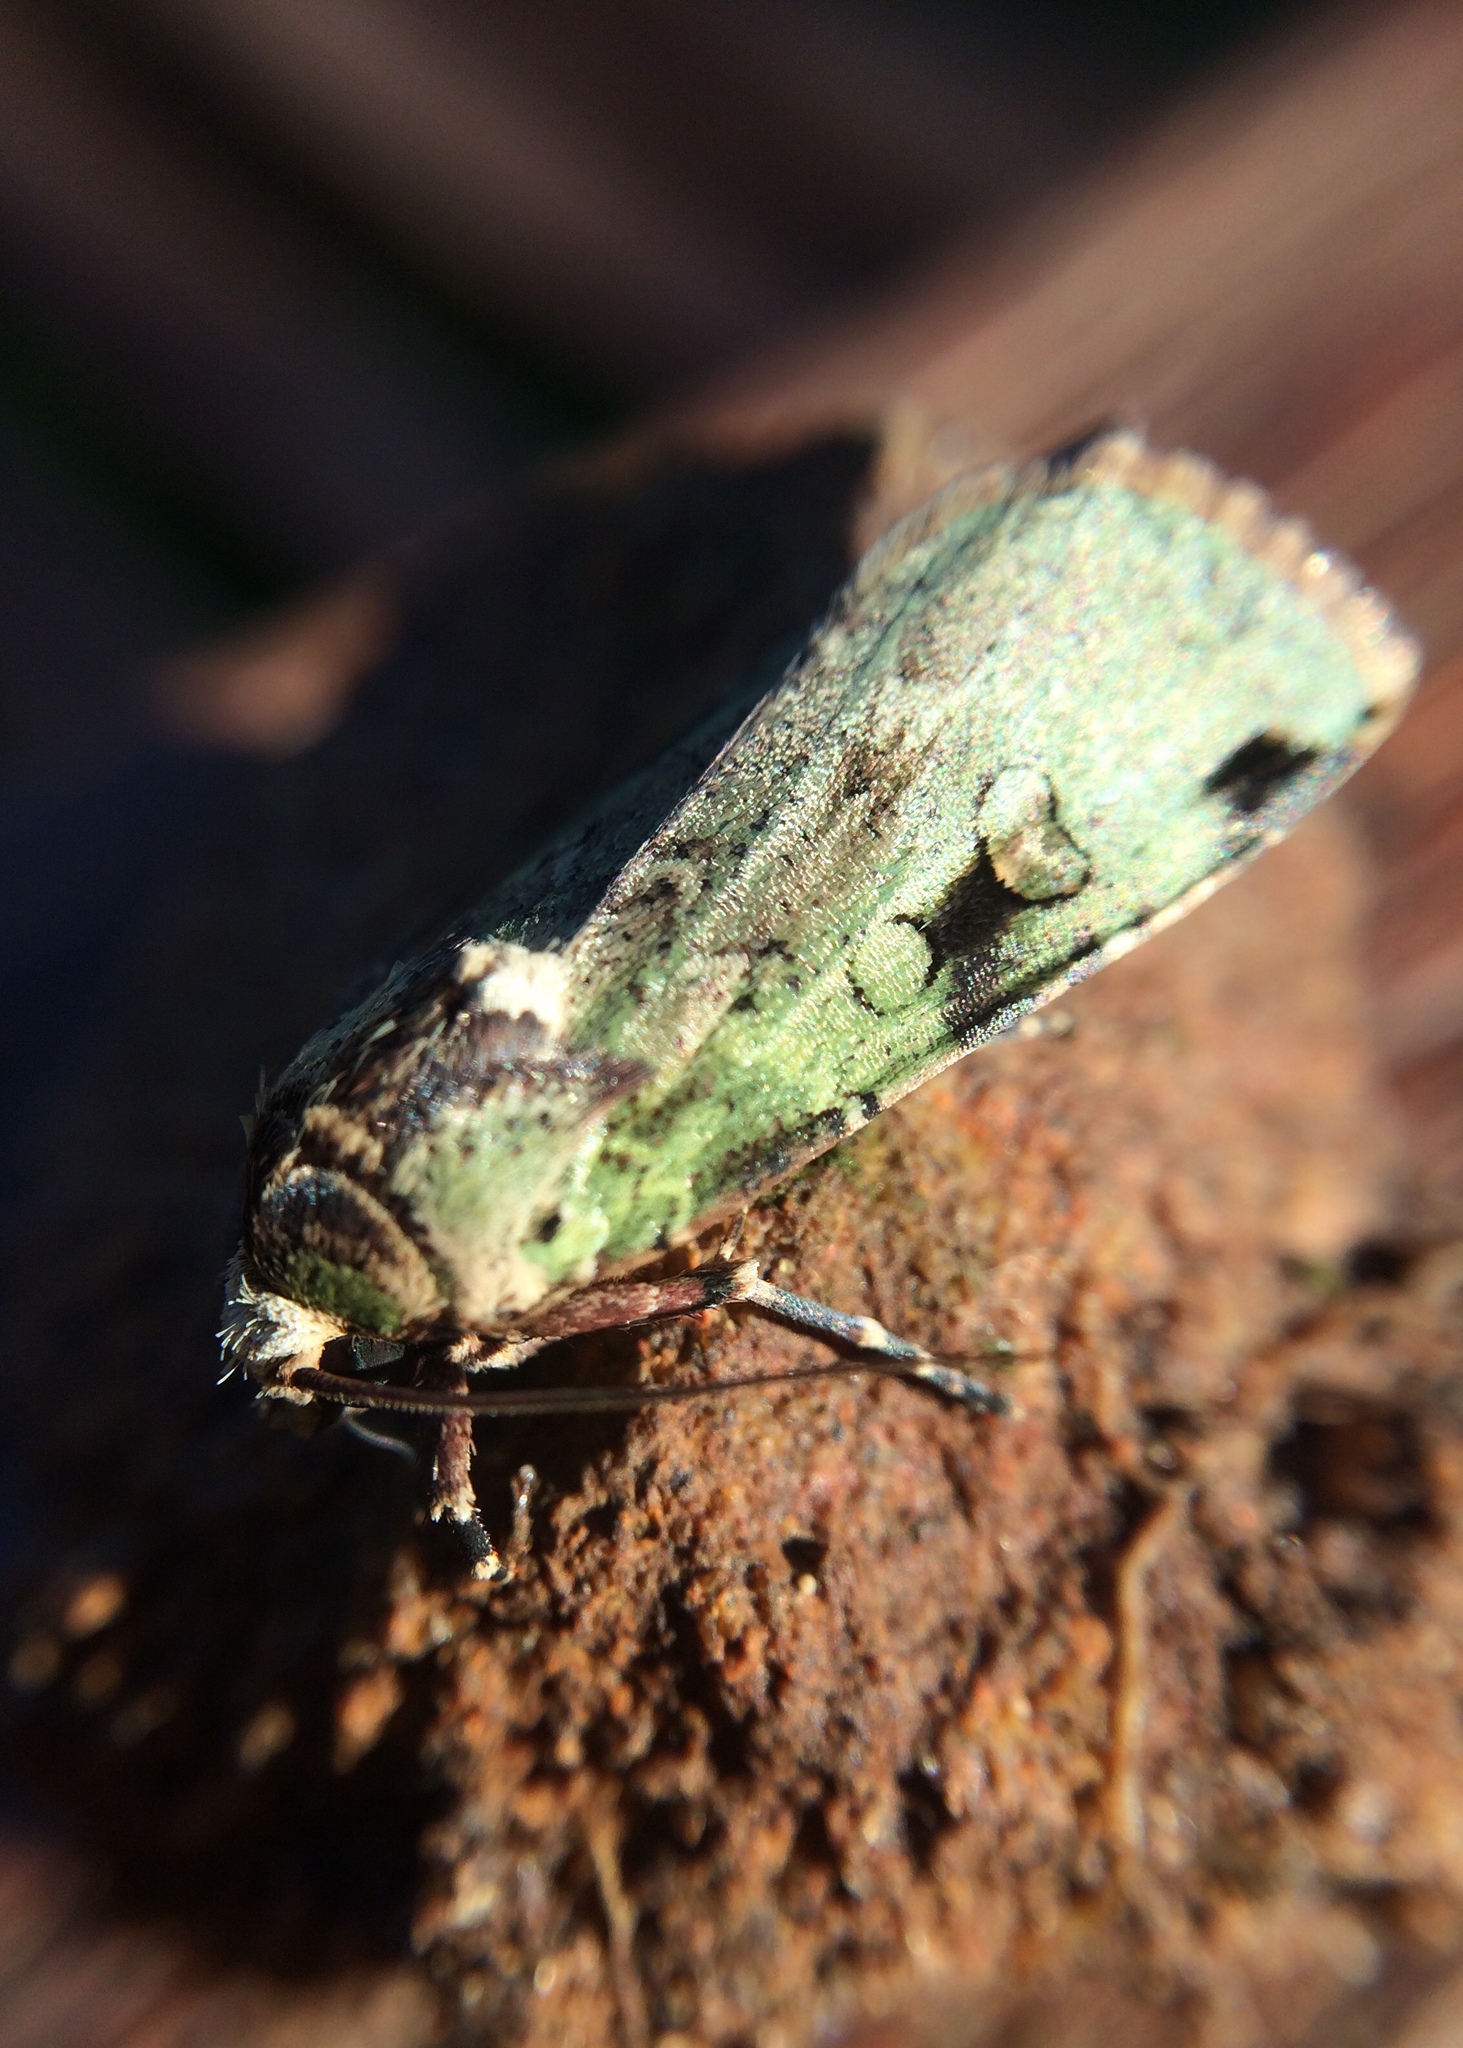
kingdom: Animalia
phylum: Arthropoda
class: Insecta
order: Lepidoptera
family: Noctuidae
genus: Mentaxya
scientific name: Mentaxya ignicollis
